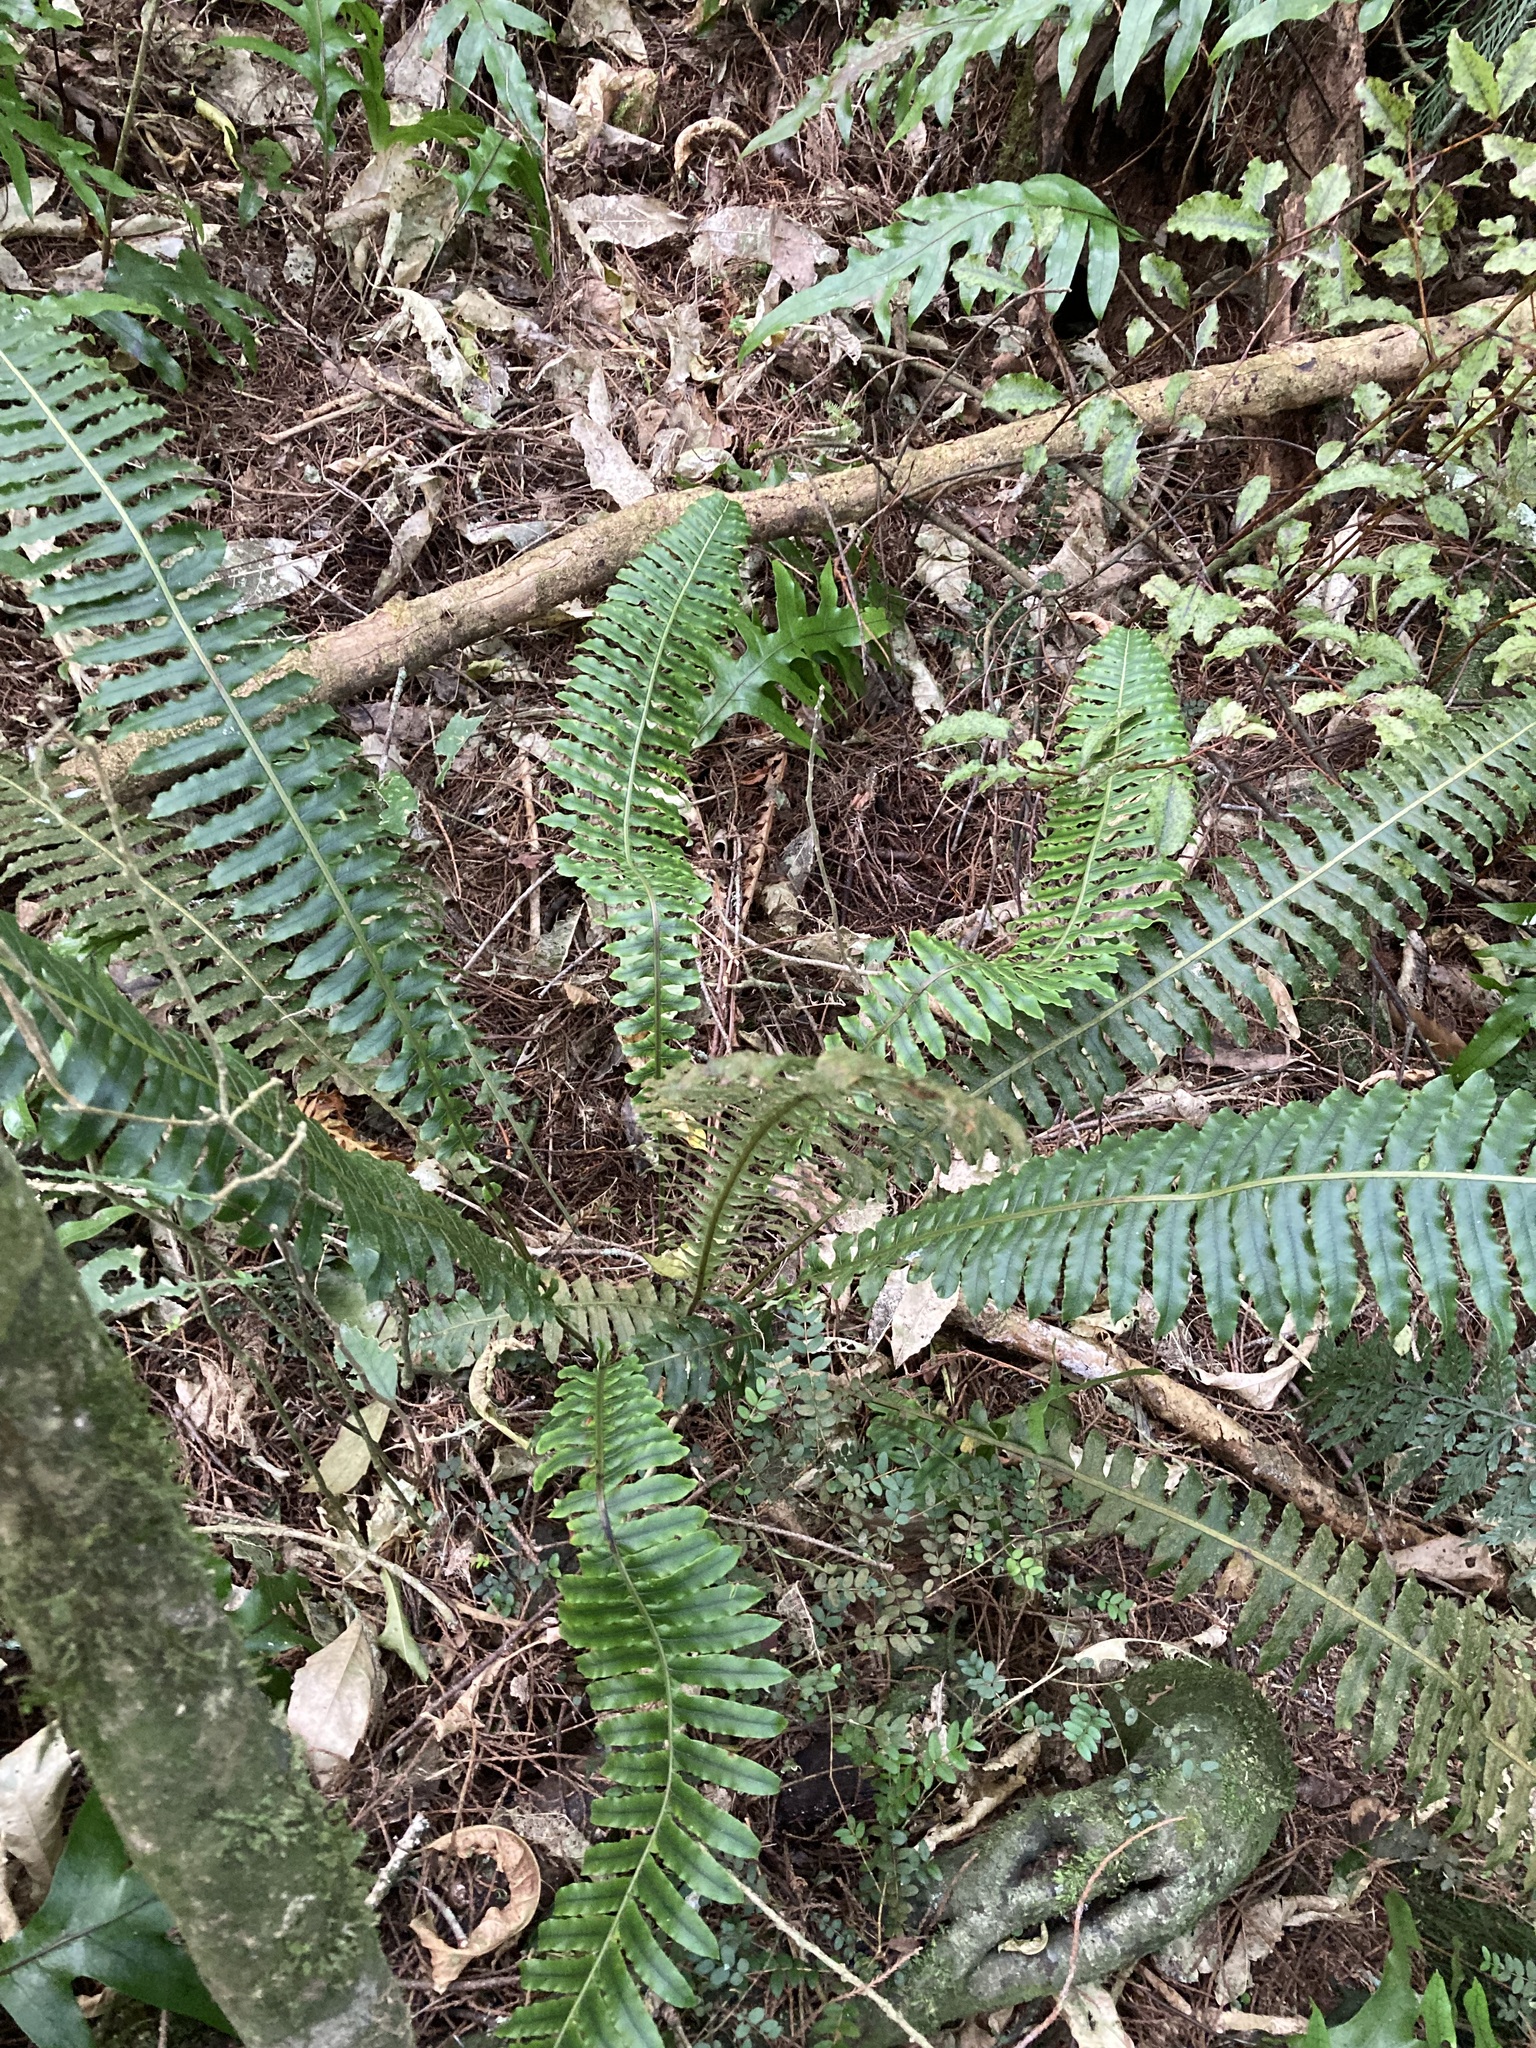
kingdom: Plantae
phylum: Tracheophyta
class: Polypodiopsida
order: Polypodiales
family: Blechnaceae
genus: Lomaria
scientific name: Lomaria discolor
